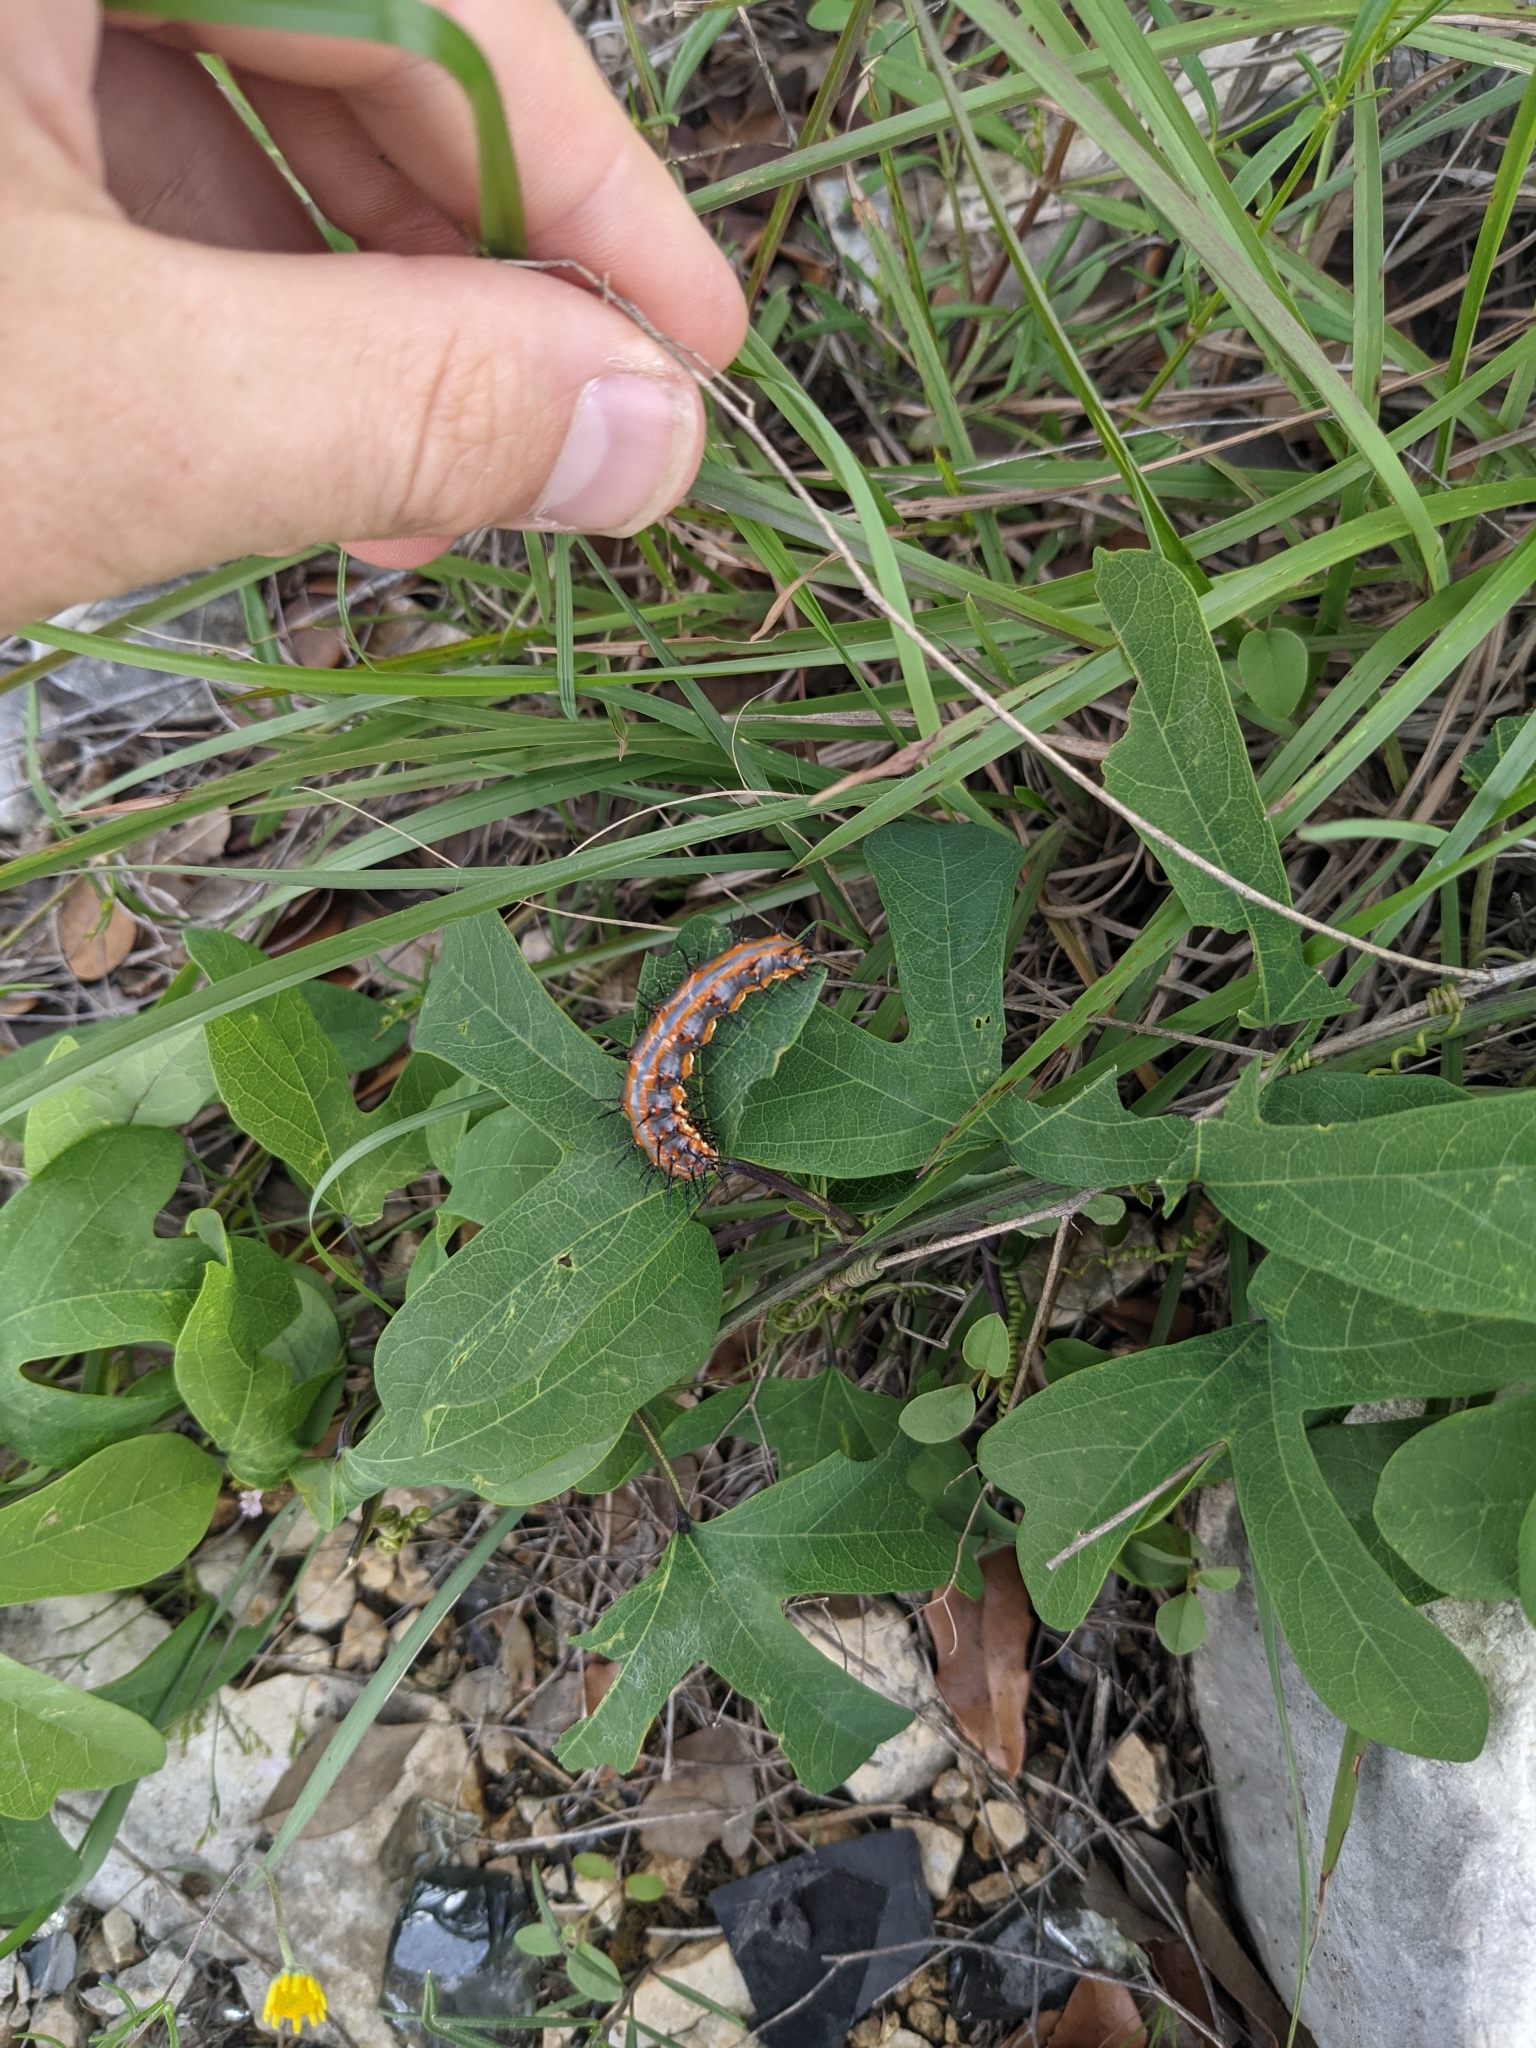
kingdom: Animalia
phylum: Arthropoda
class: Insecta
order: Lepidoptera
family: Nymphalidae
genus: Dione
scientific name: Dione vanillae
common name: Gulf fritillary
